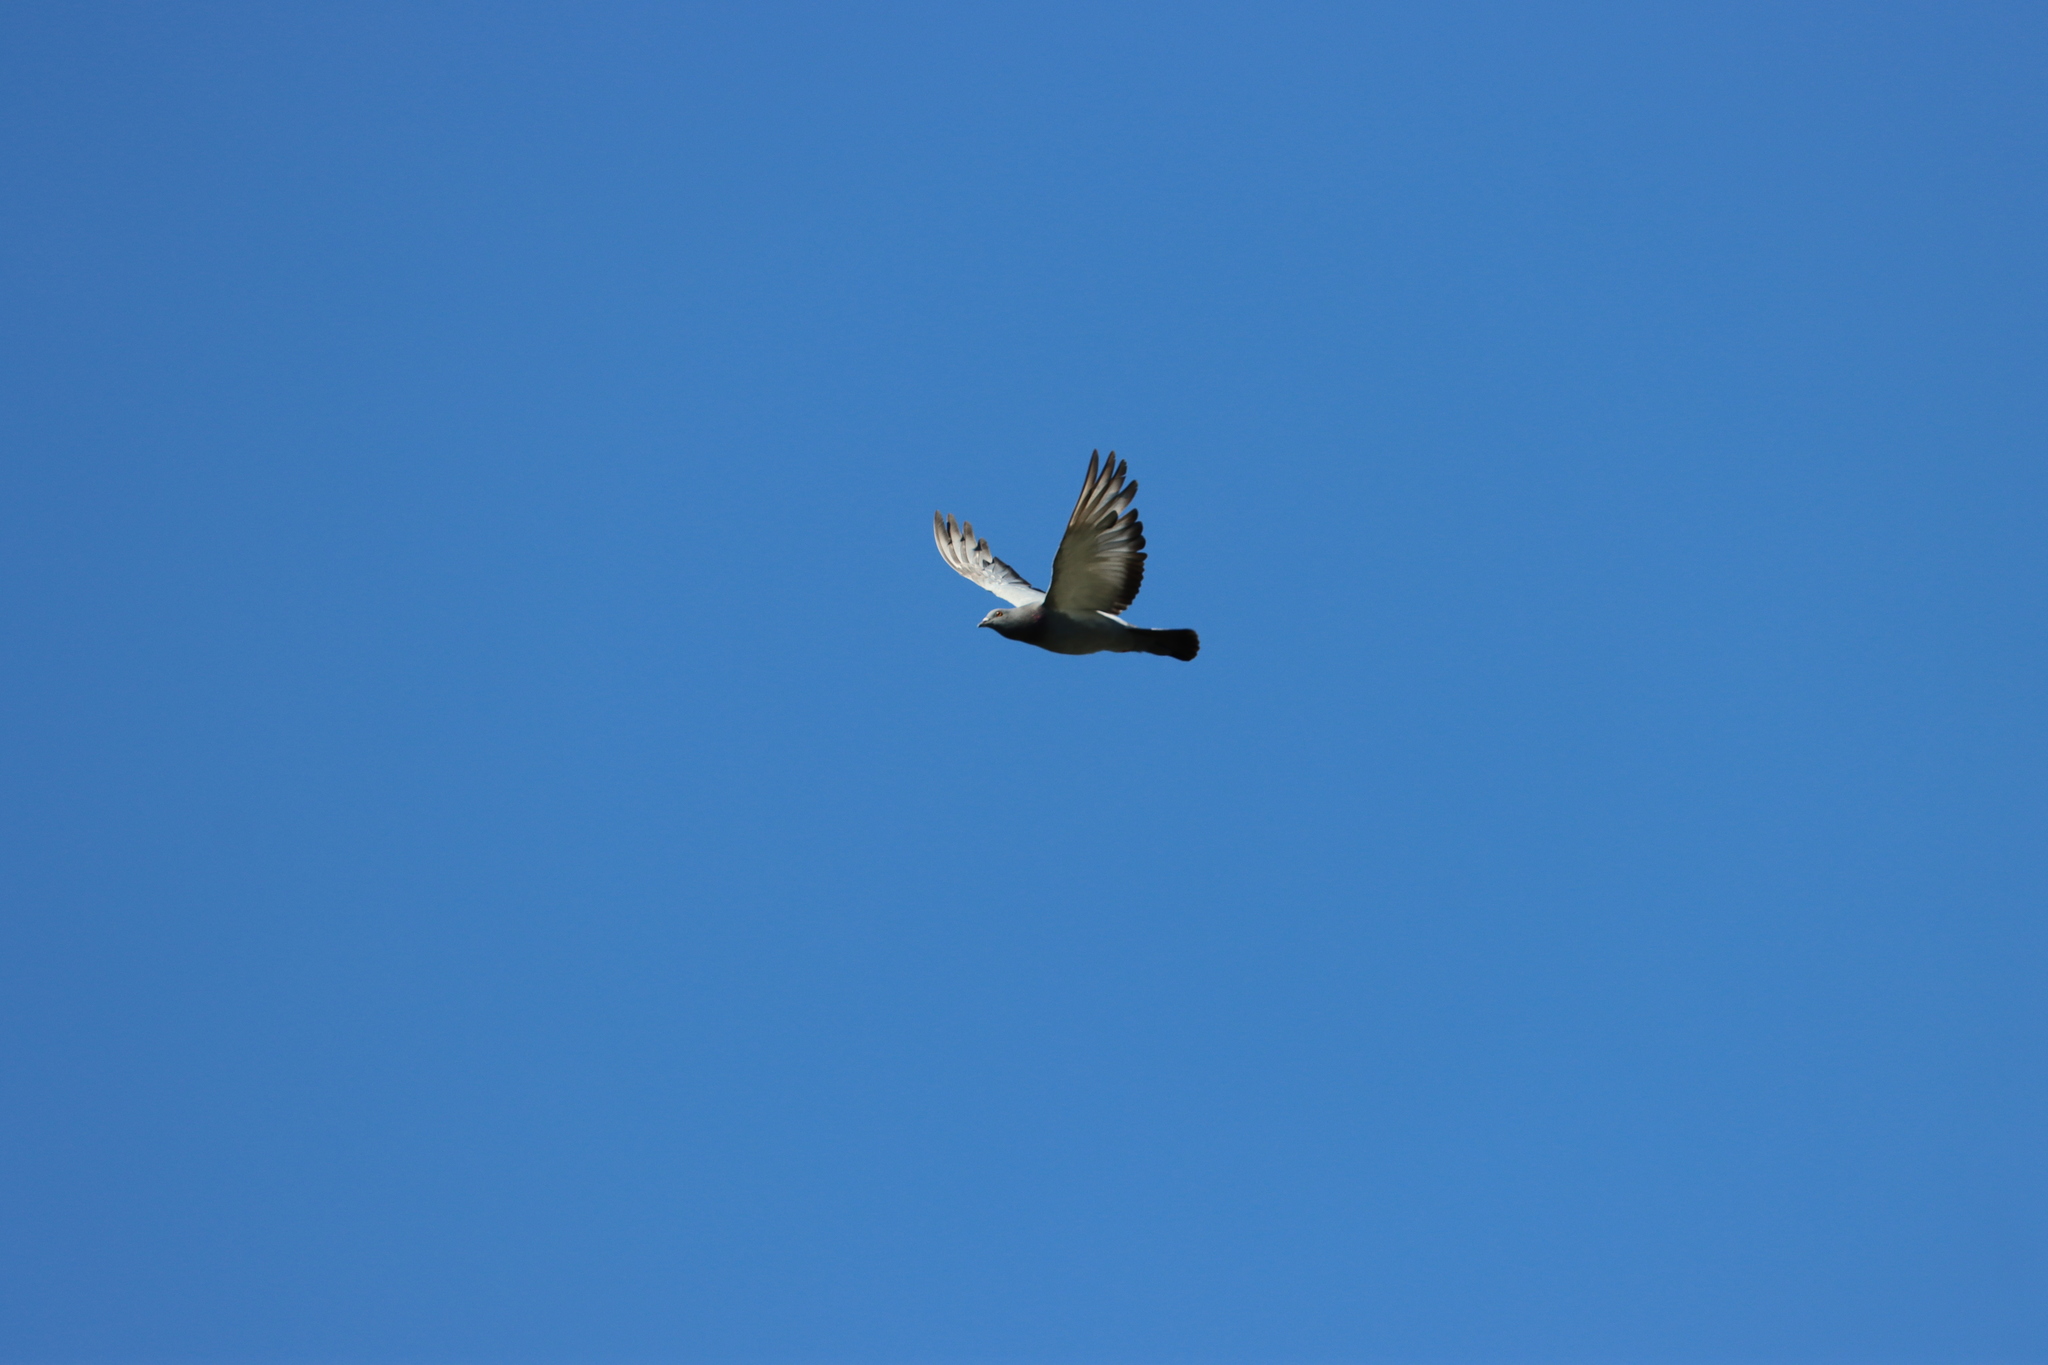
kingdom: Animalia
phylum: Chordata
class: Aves
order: Columbiformes
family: Columbidae
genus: Columba
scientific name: Columba livia
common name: Rock pigeon
